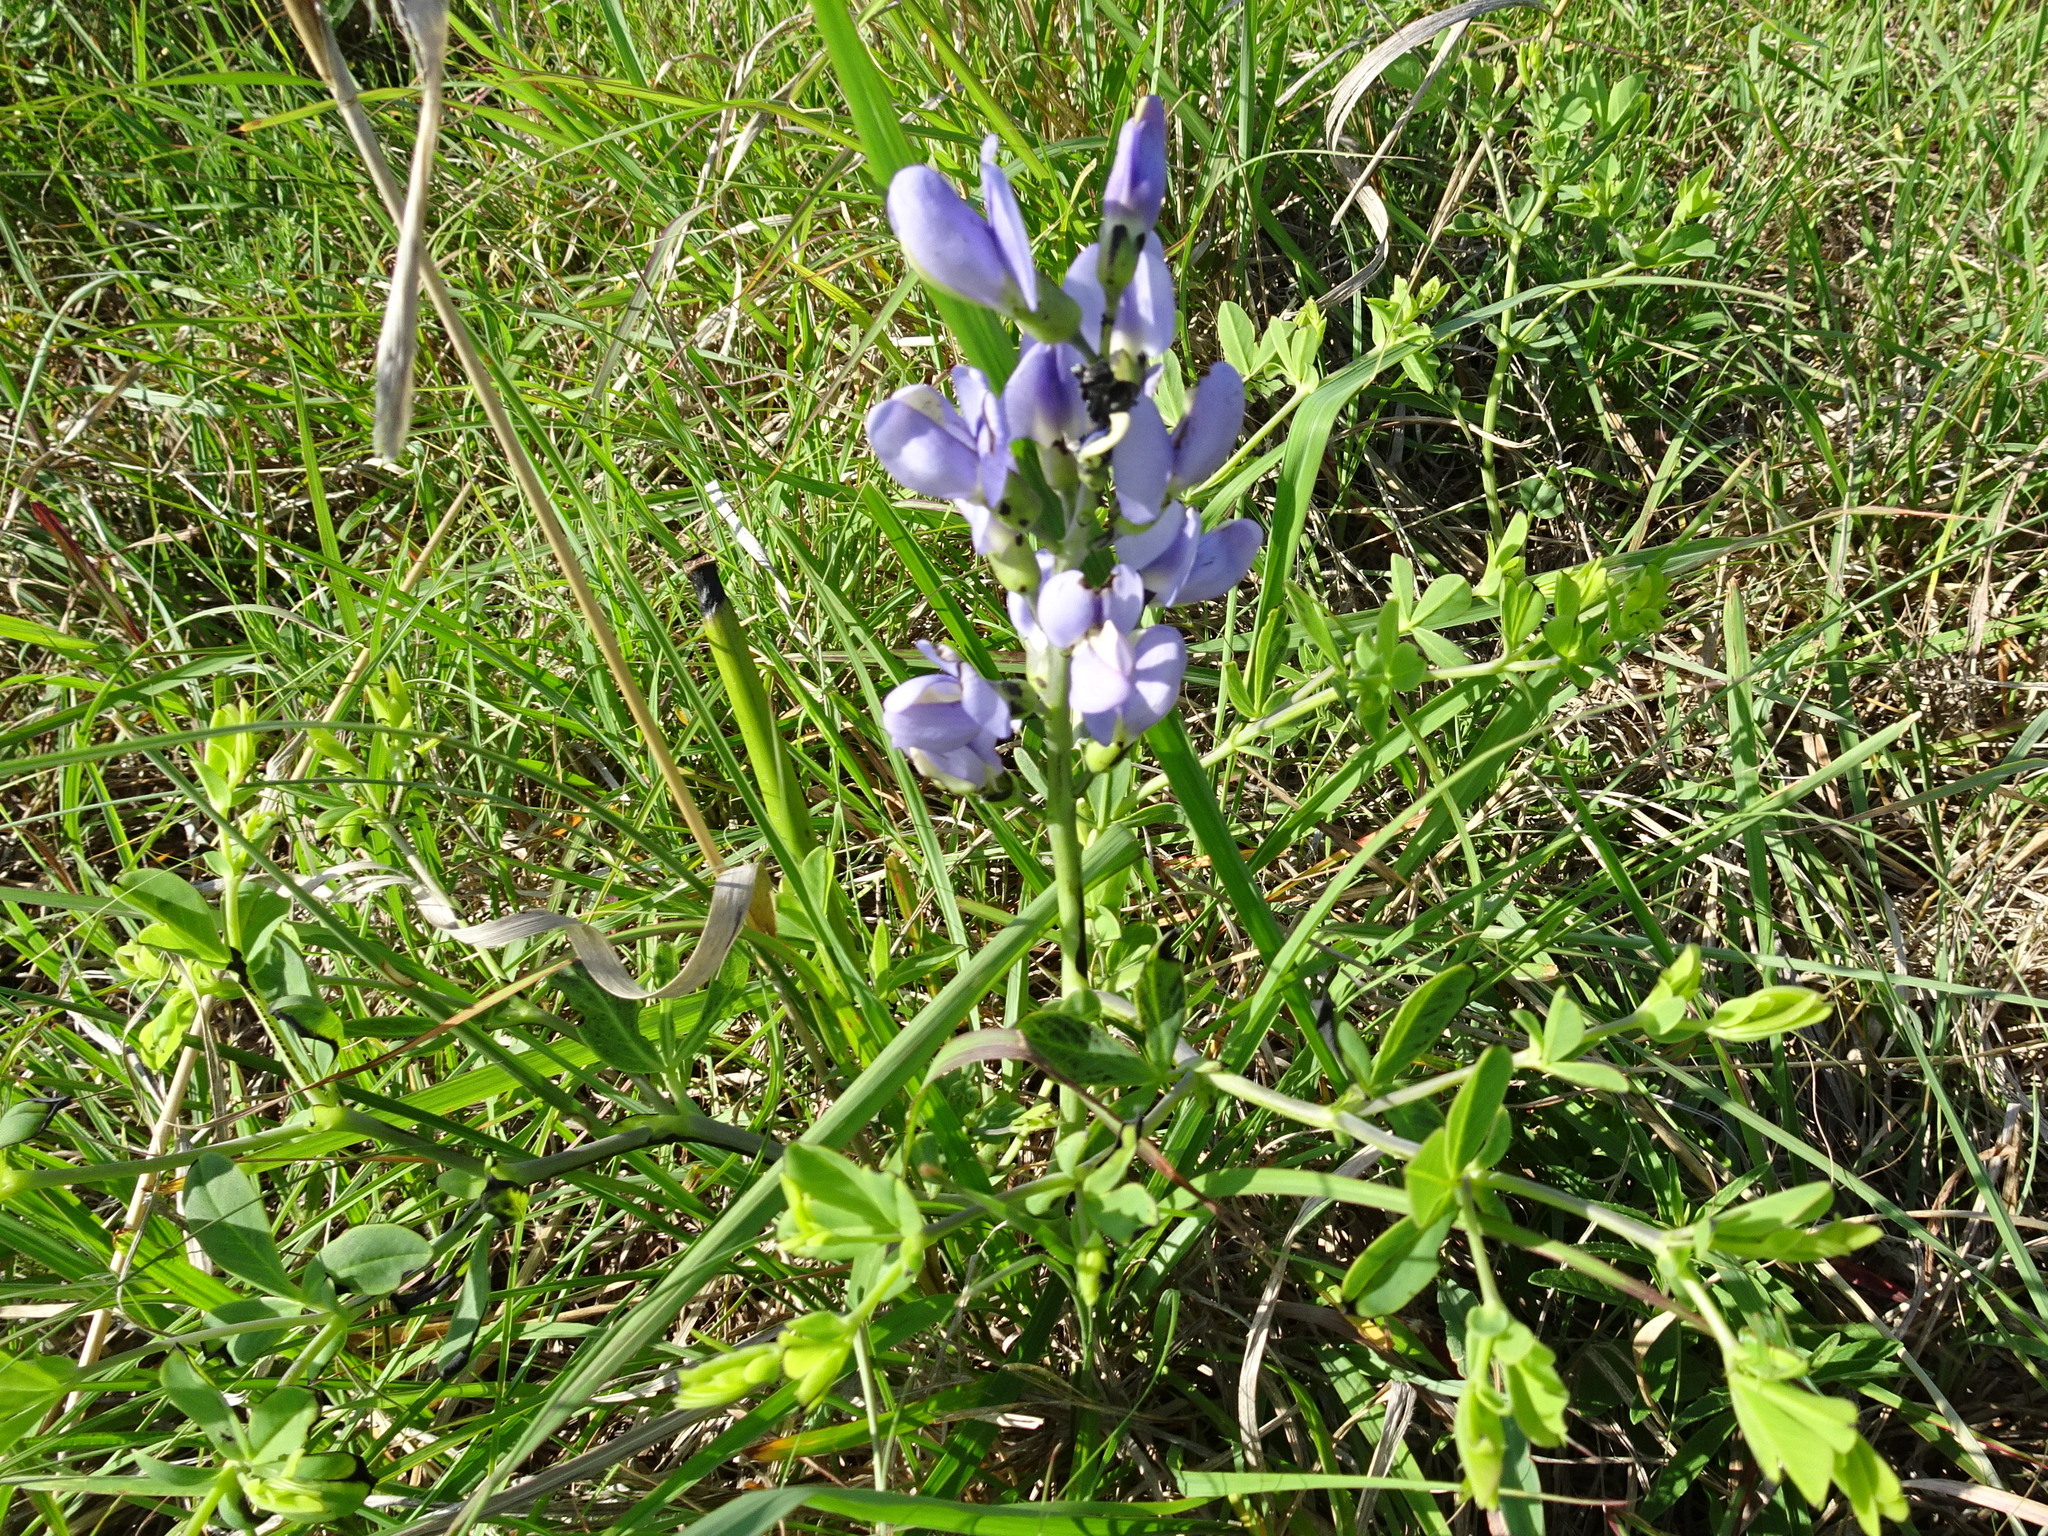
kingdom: Plantae
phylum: Tracheophyta
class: Magnoliopsida
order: Fabales
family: Fabaceae
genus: Baptisia
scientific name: Baptisia australis
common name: Blue false indigo
